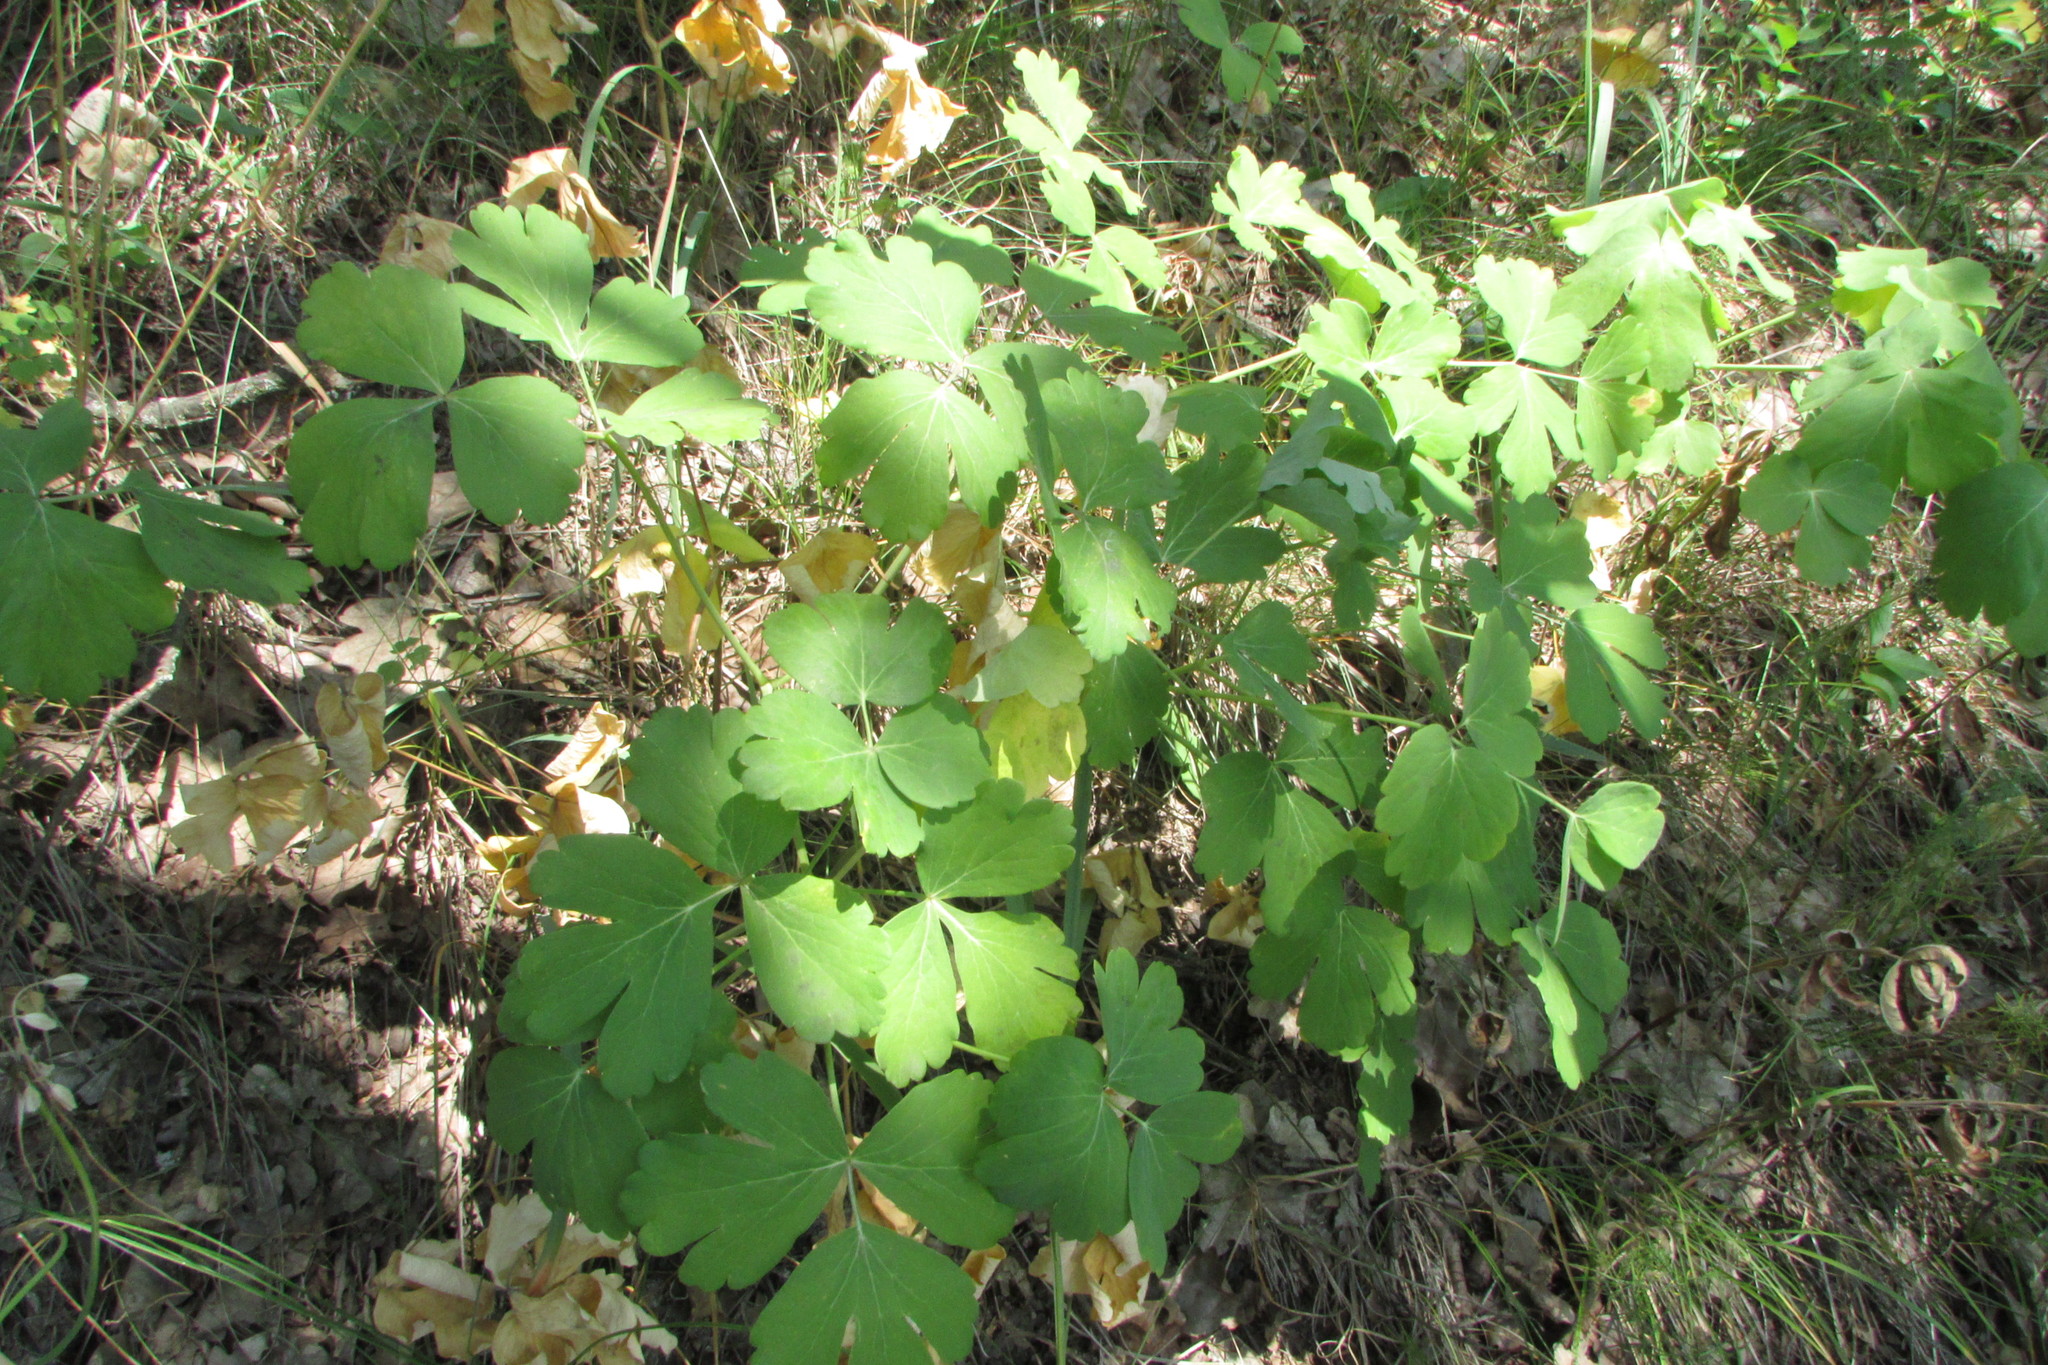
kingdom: Plantae
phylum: Tracheophyta
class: Magnoliopsida
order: Apiales
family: Apiaceae
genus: Laser
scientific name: Laser trilobum
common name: Laser
